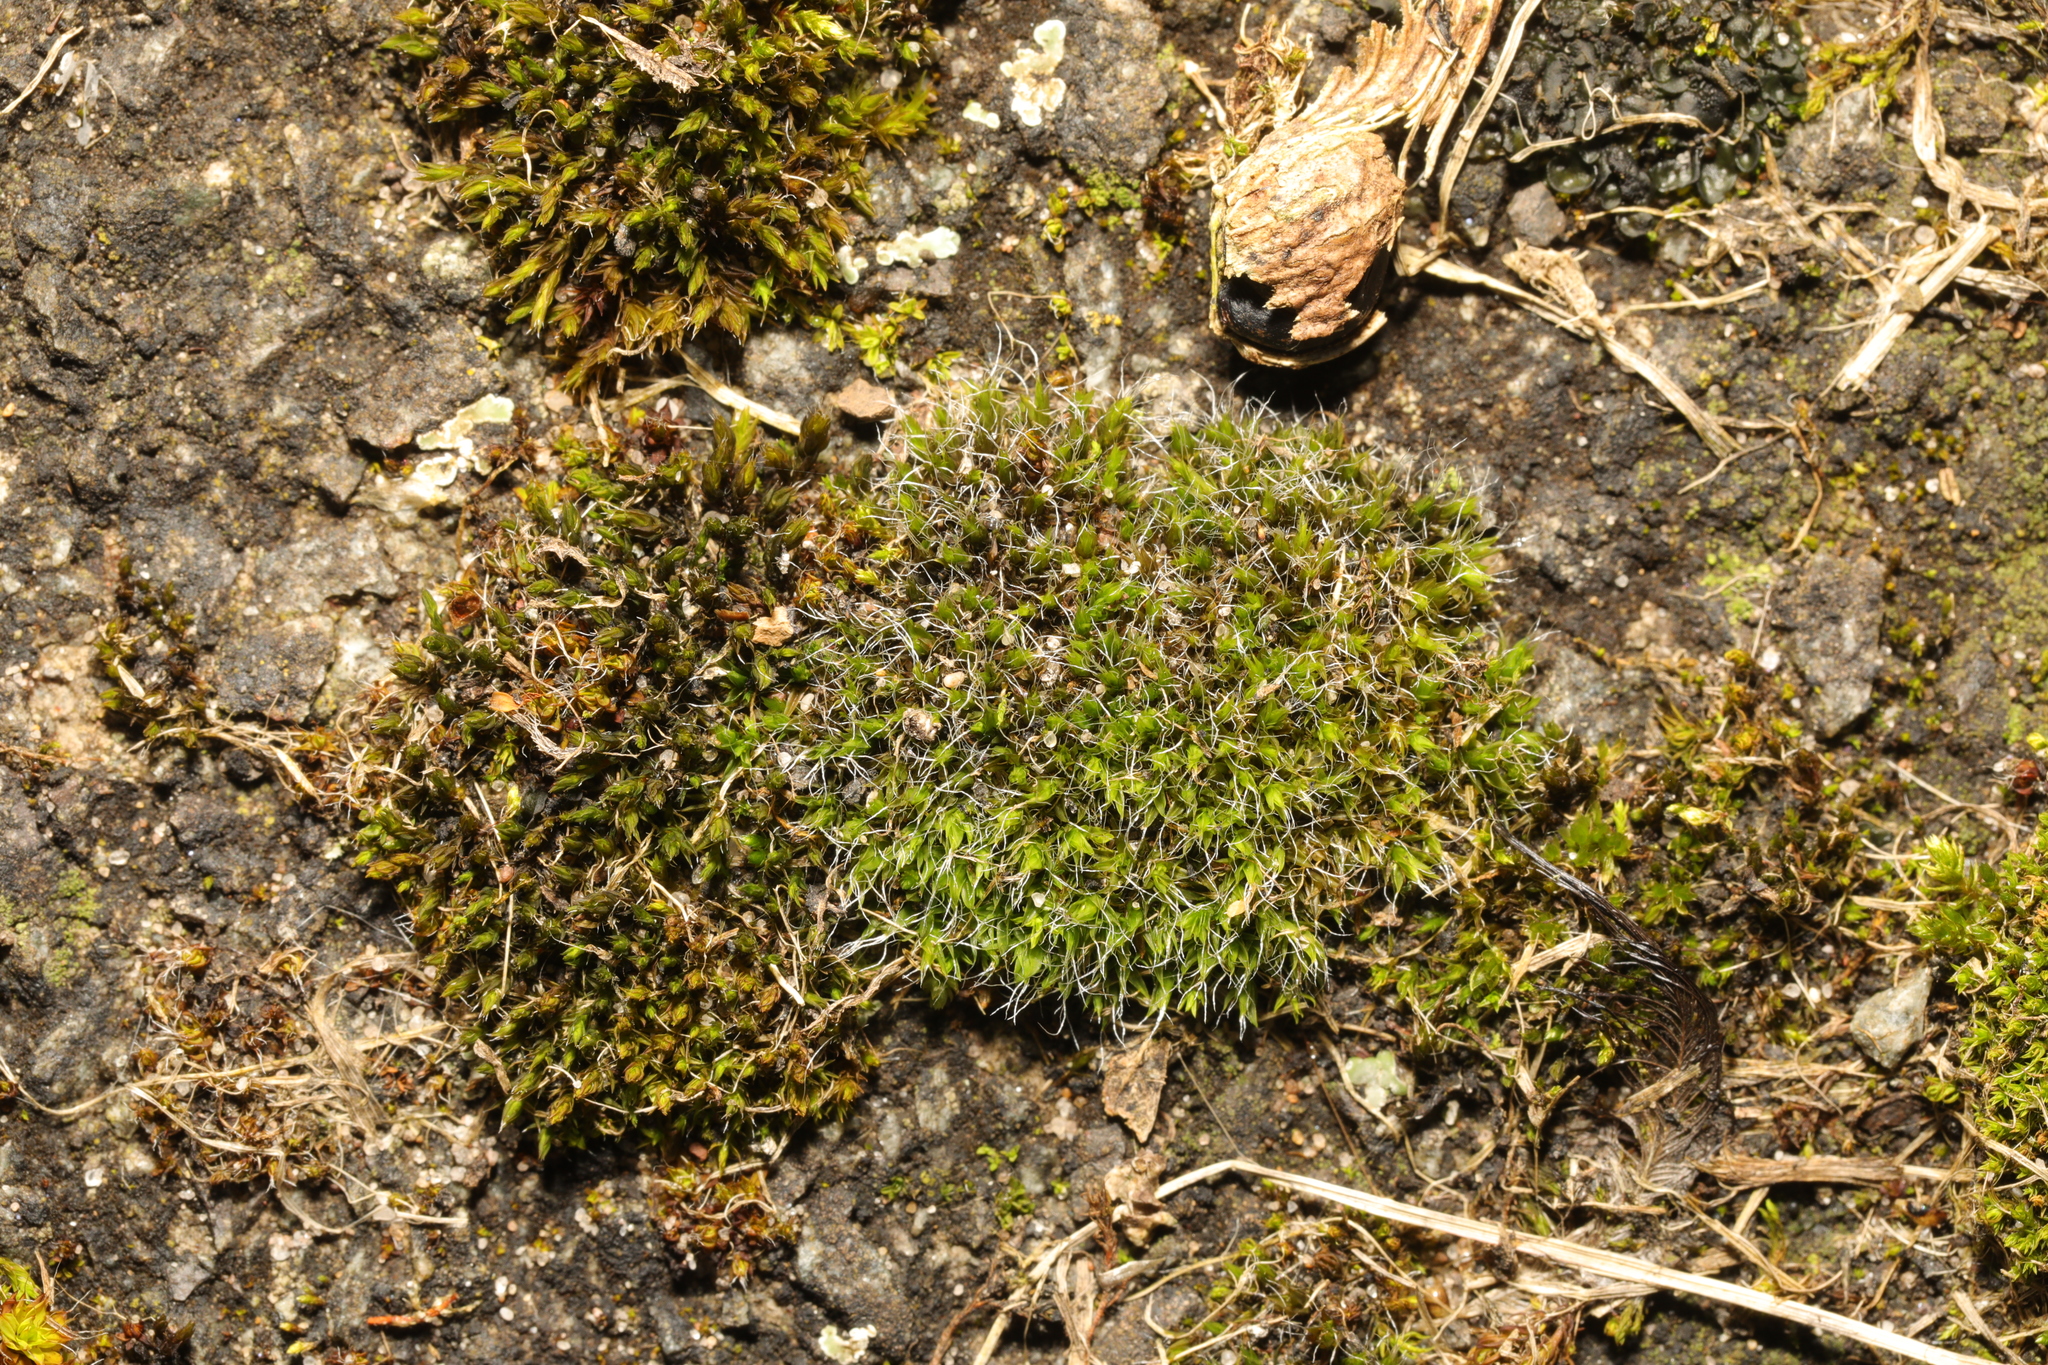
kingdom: Plantae
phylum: Bryophyta
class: Bryopsida
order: Grimmiales
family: Grimmiaceae
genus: Grimmia
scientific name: Grimmia pulvinata
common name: Grey-cushioned grimmia
